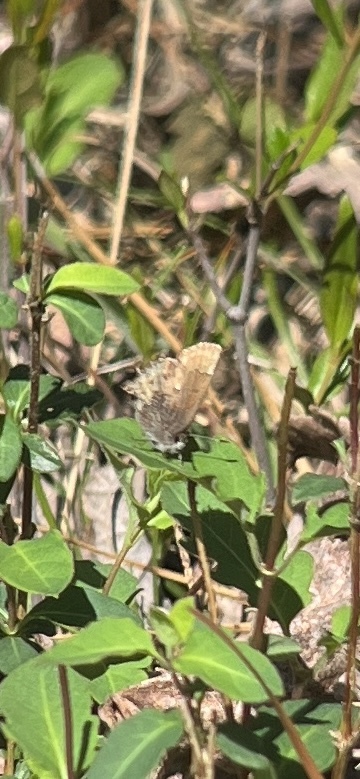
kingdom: Animalia
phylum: Arthropoda
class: Insecta
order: Lepidoptera
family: Lycaenidae
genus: Incisalia
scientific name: Incisalia henrici
